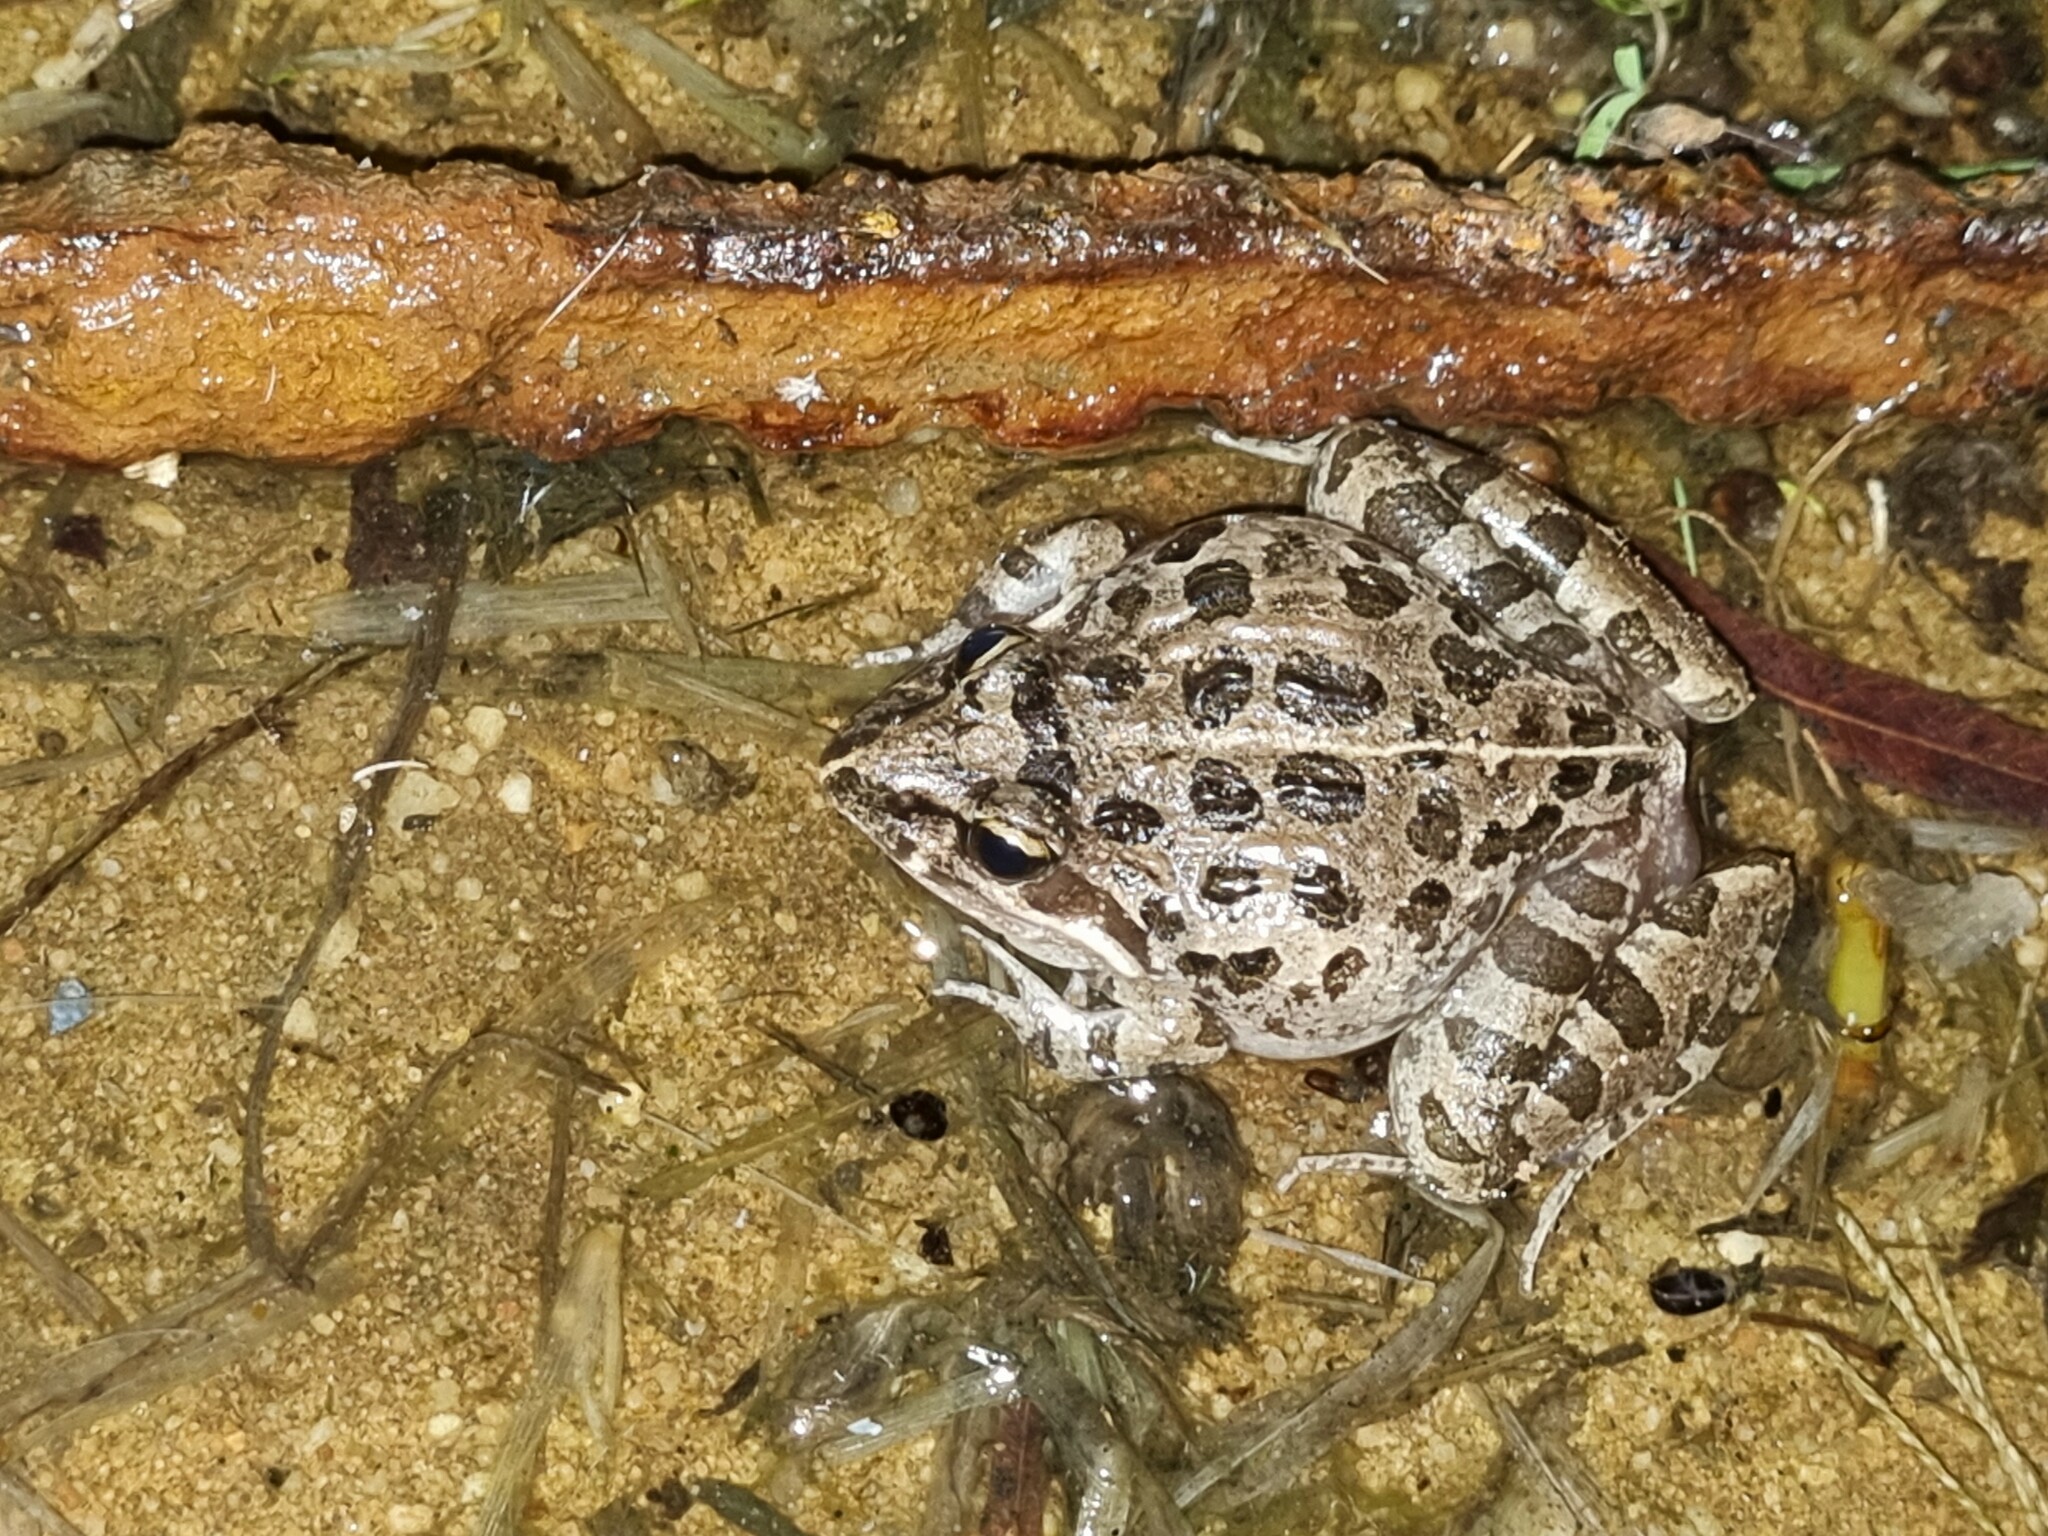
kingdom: Animalia
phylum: Chordata
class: Amphibia
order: Anura
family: Pyxicephalidae
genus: Strongylopus
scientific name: Strongylopus grayii
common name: Gray's stream frog
